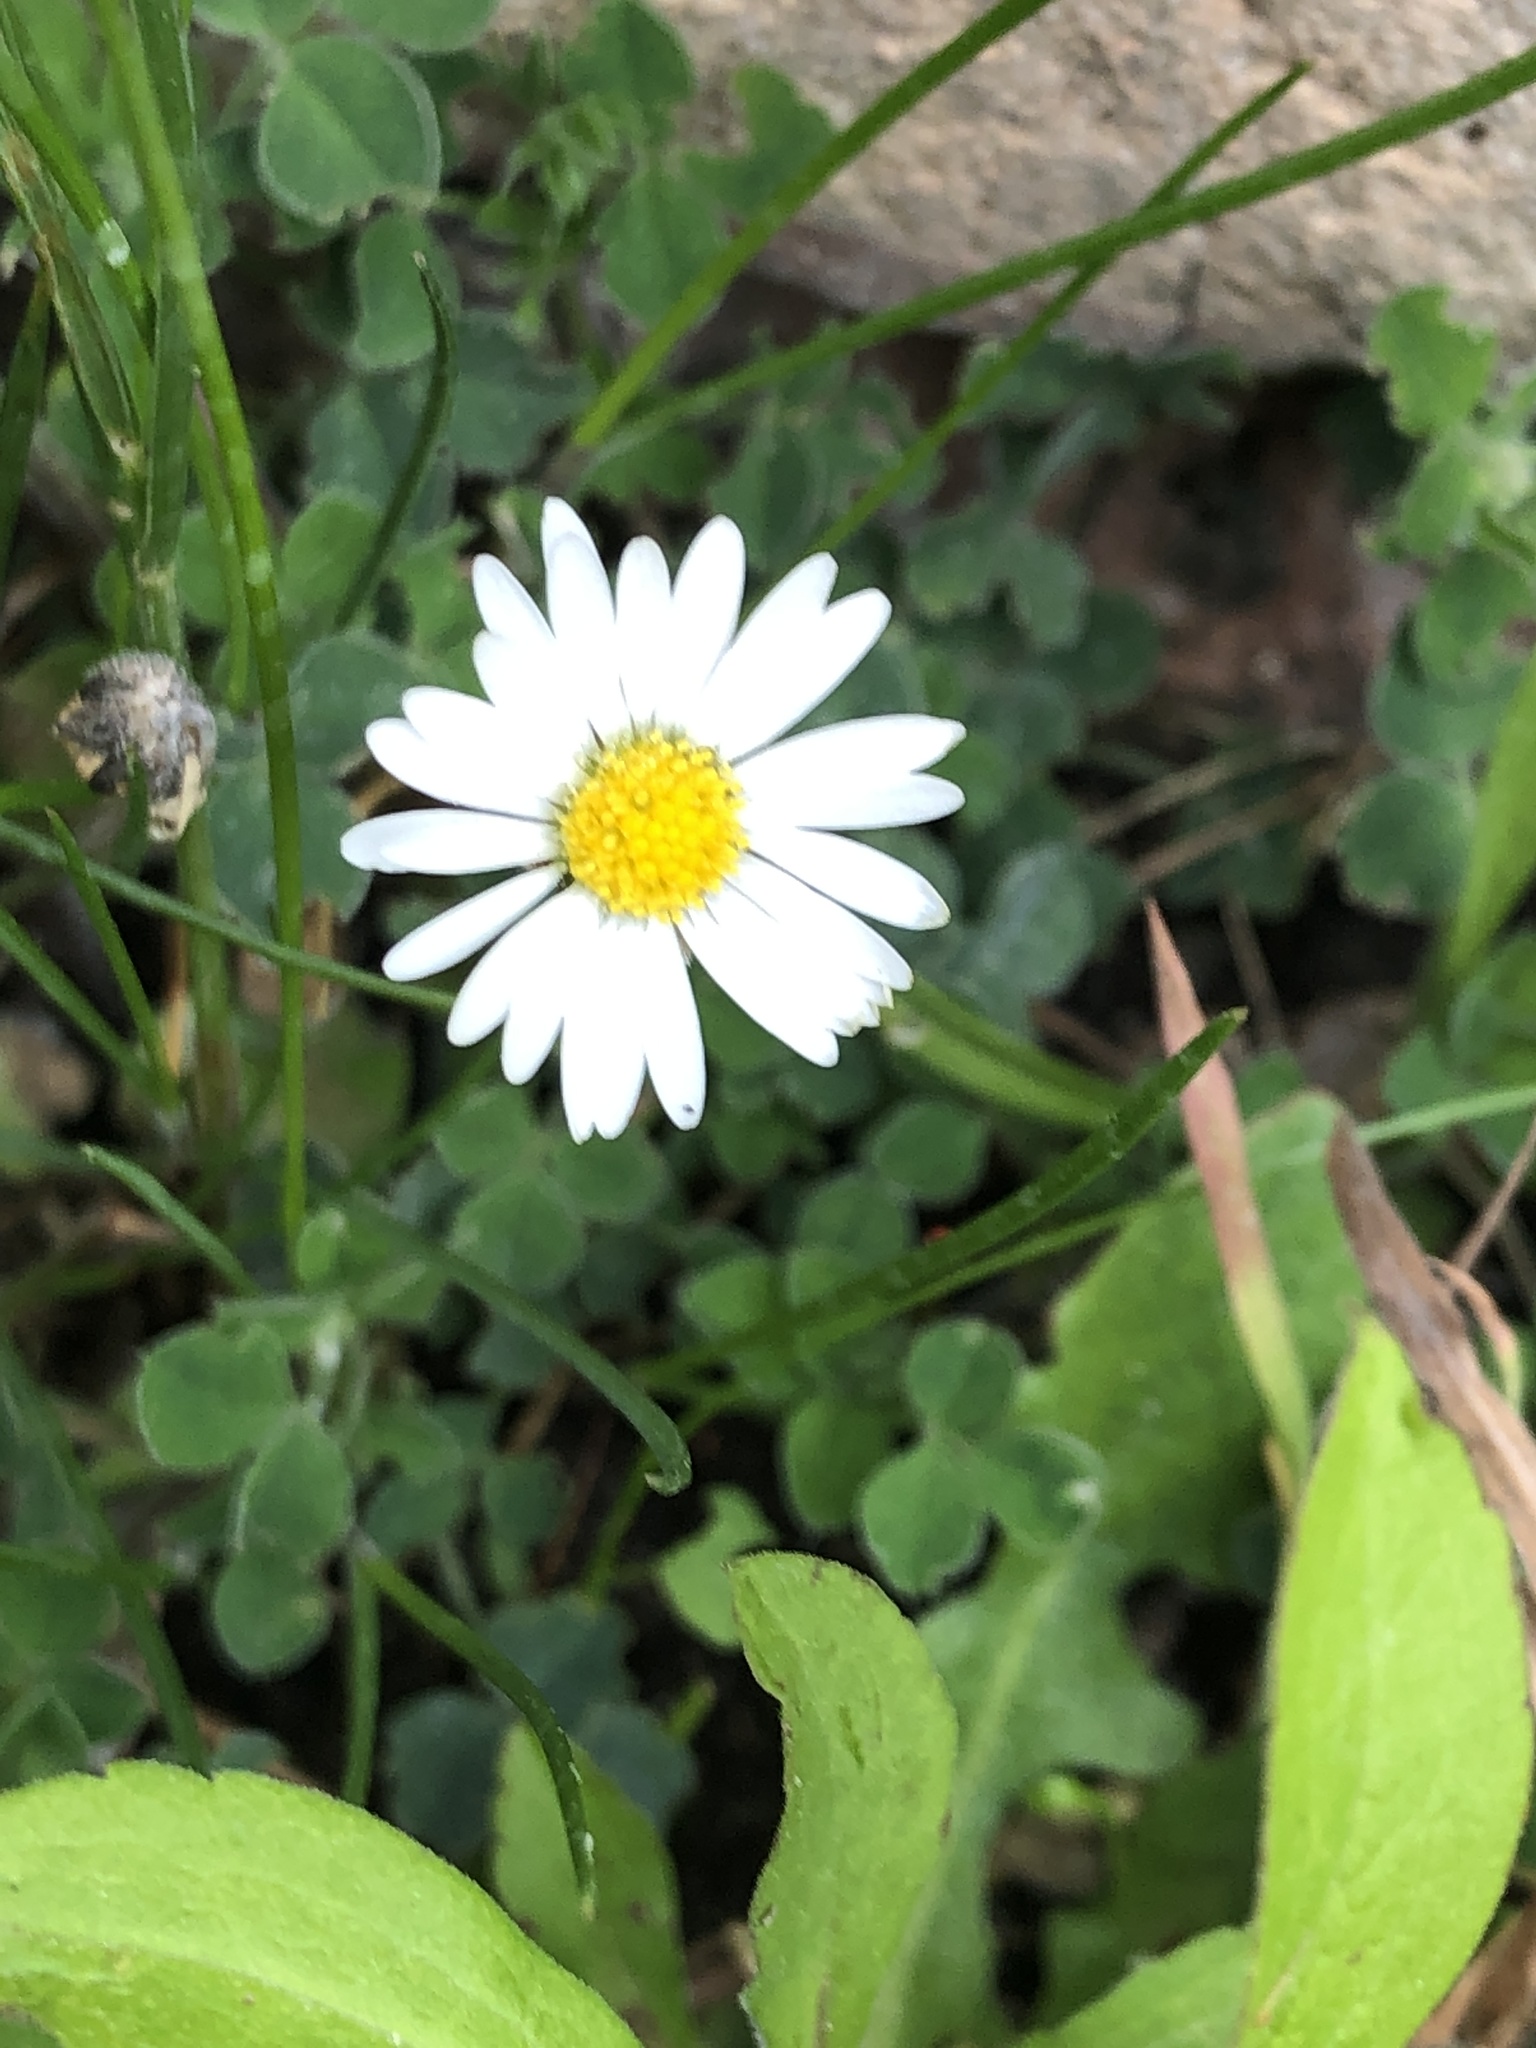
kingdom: Plantae
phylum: Tracheophyta
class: Magnoliopsida
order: Asterales
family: Asteraceae
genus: Bellis
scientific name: Bellis perennis
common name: Lawndaisy
